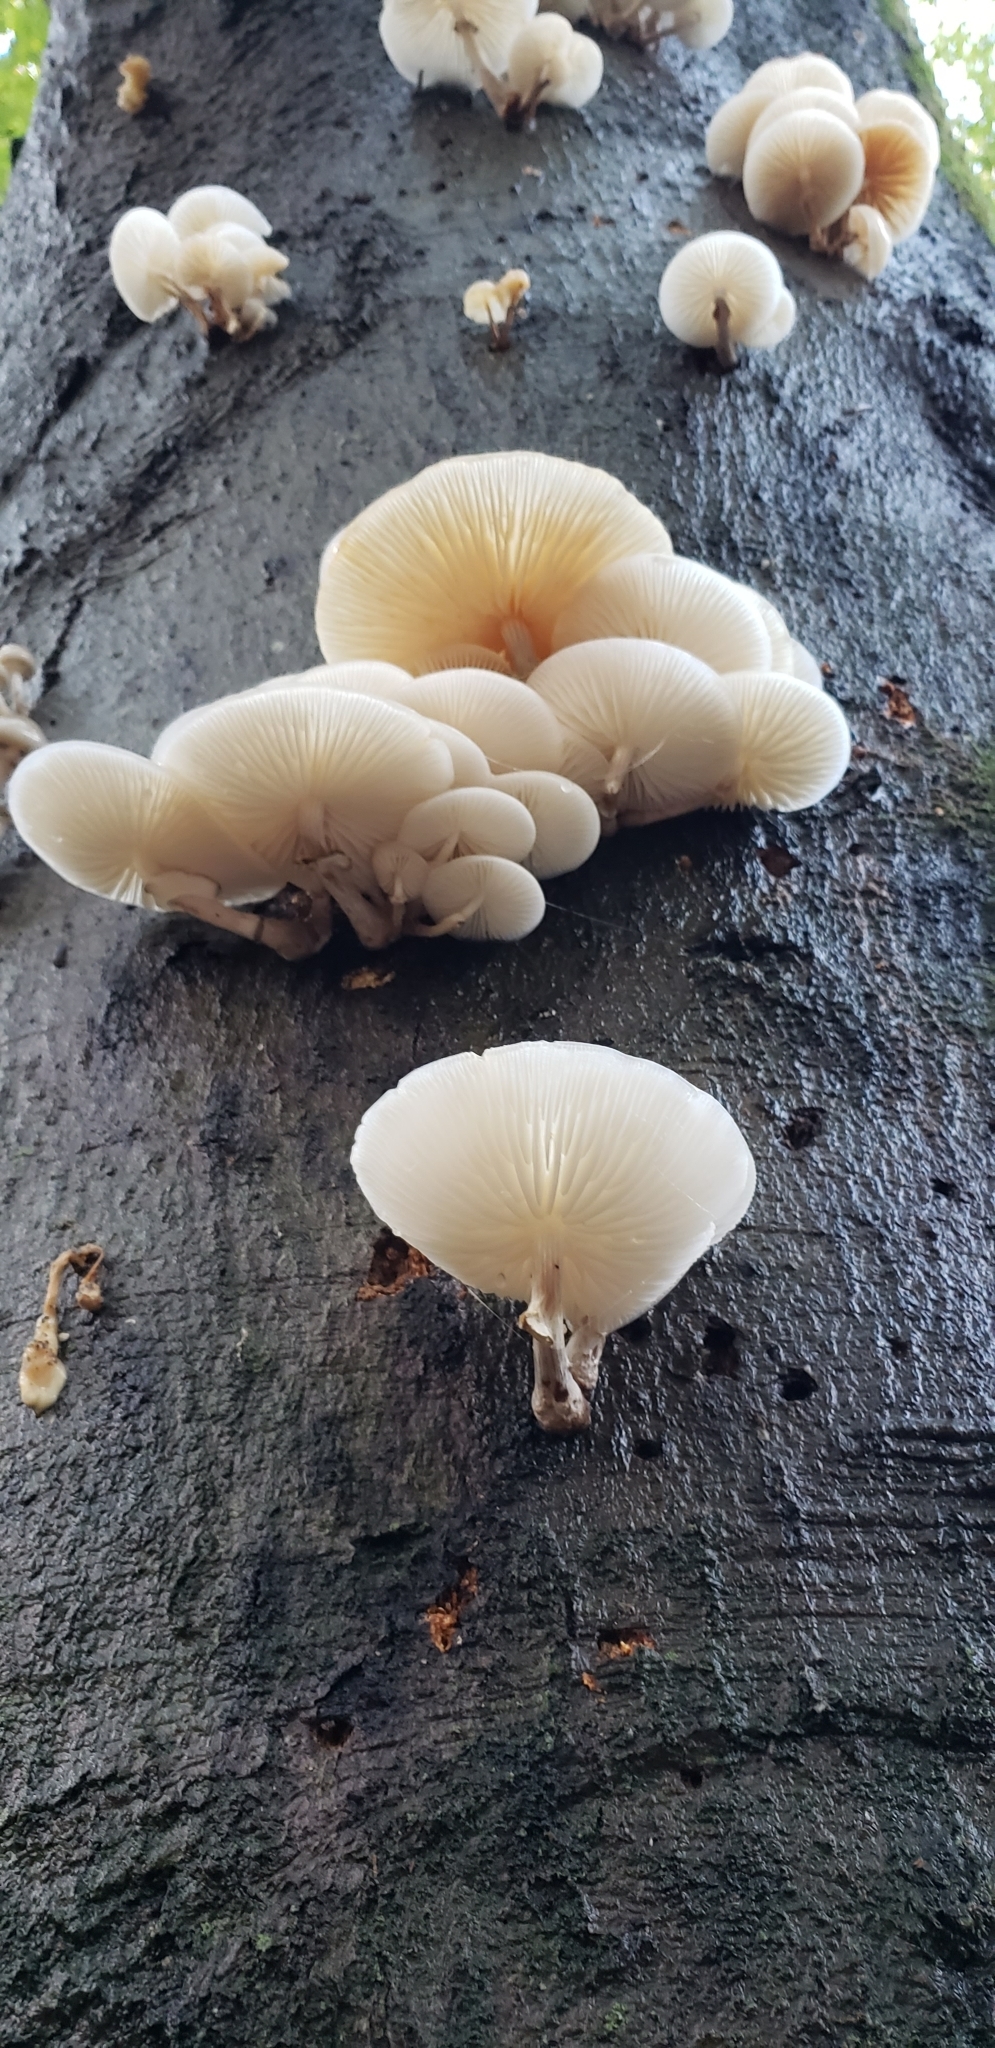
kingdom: Fungi
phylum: Basidiomycota
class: Agaricomycetes
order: Agaricales
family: Physalacriaceae
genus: Mucidula
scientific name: Mucidula mucida
